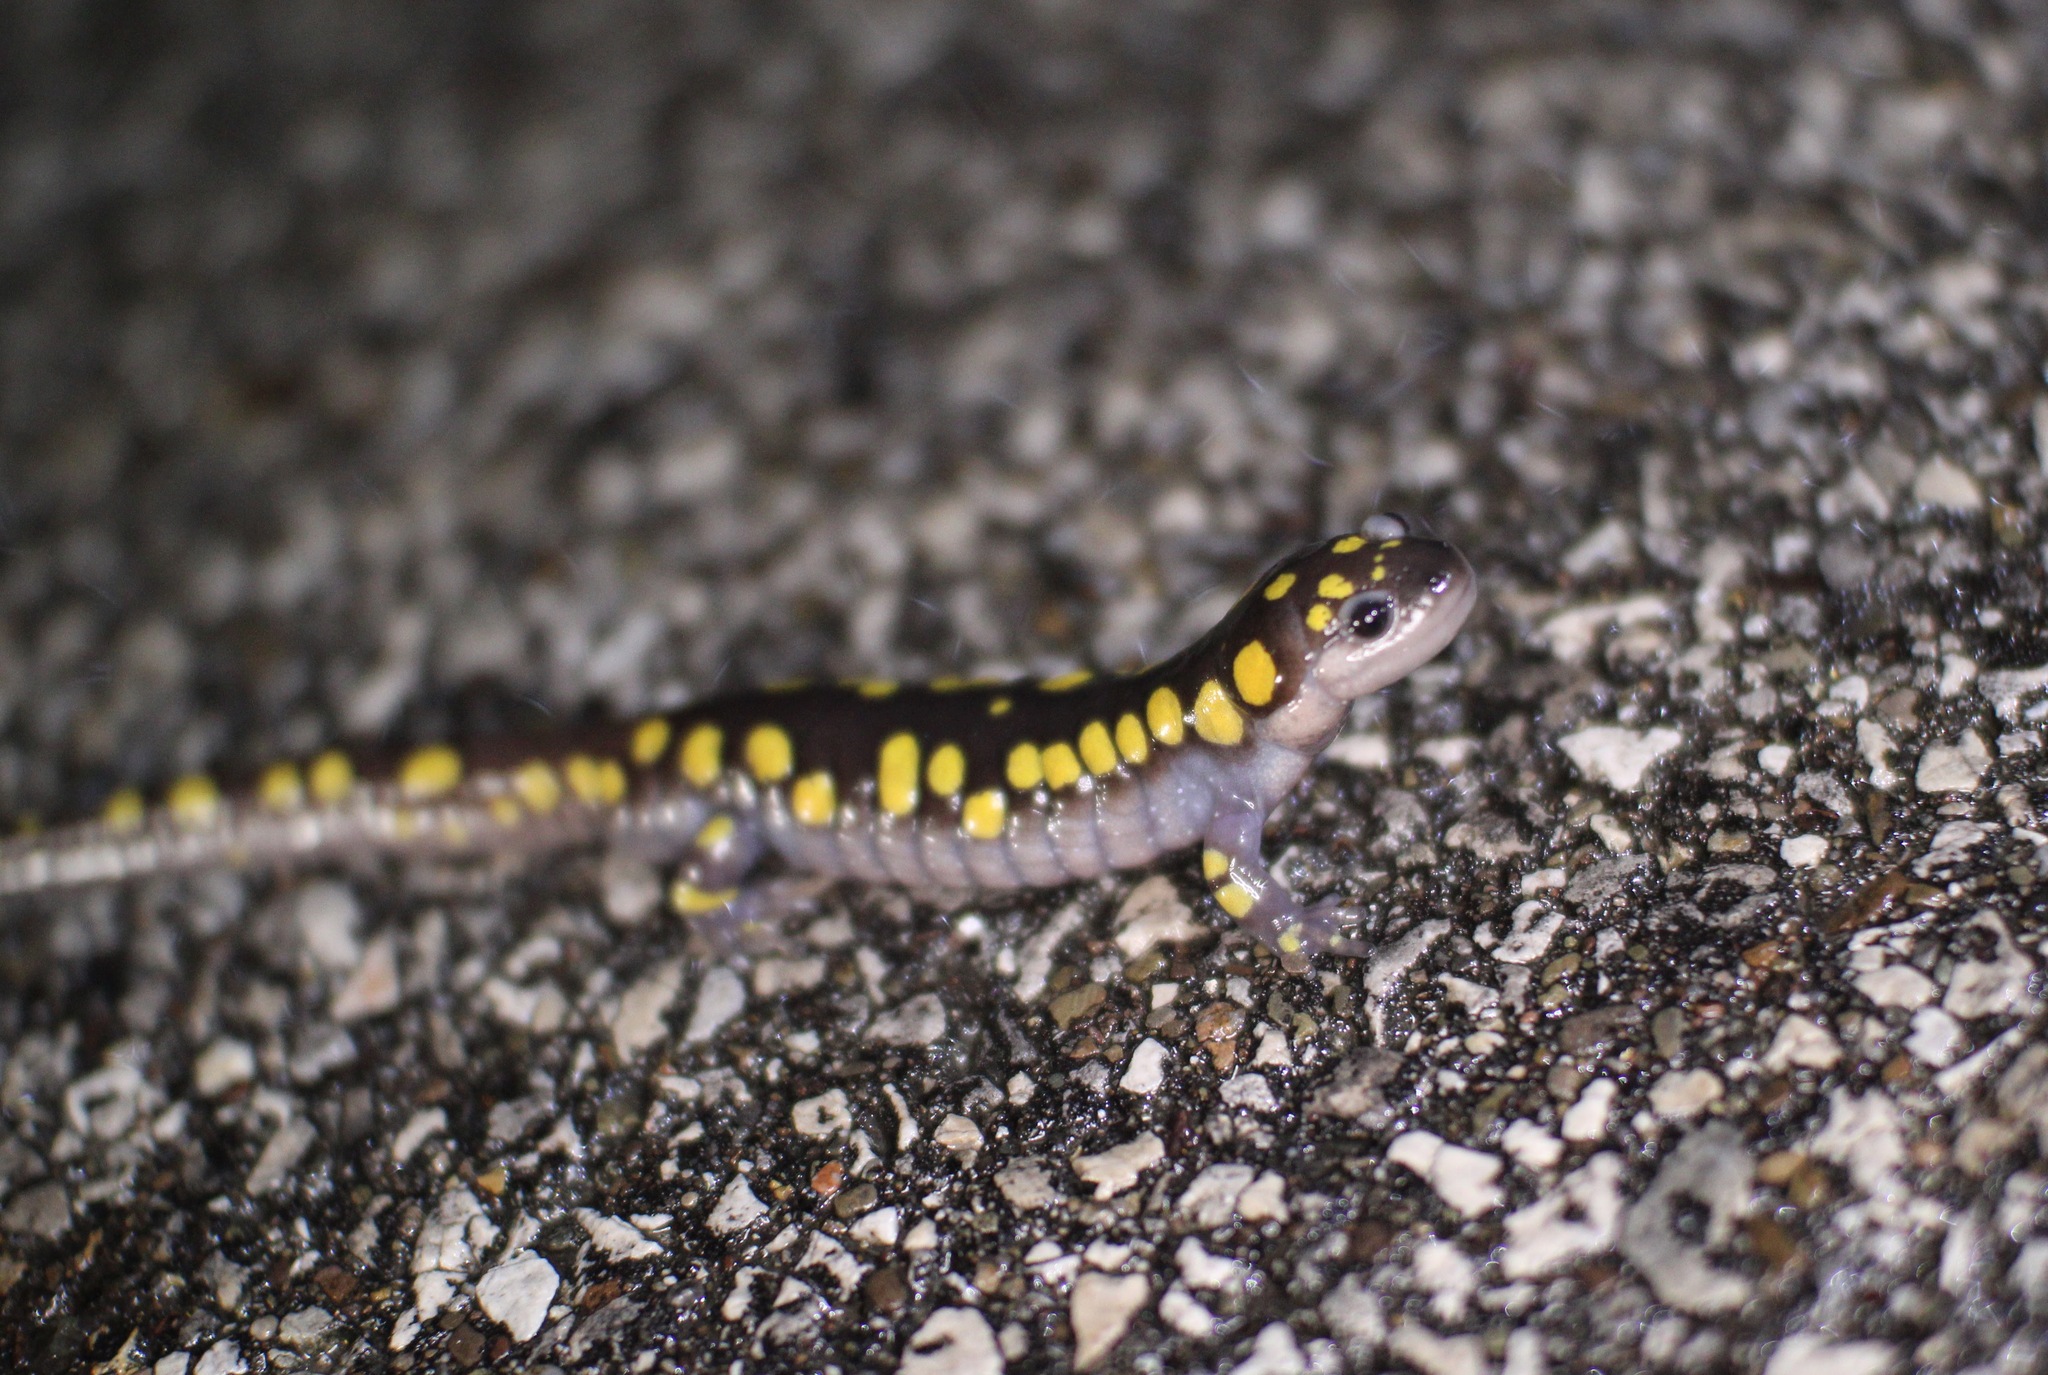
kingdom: Animalia
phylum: Chordata
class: Amphibia
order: Caudata
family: Ambystomatidae
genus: Ambystoma
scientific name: Ambystoma maculatum
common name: Spotted salamander
